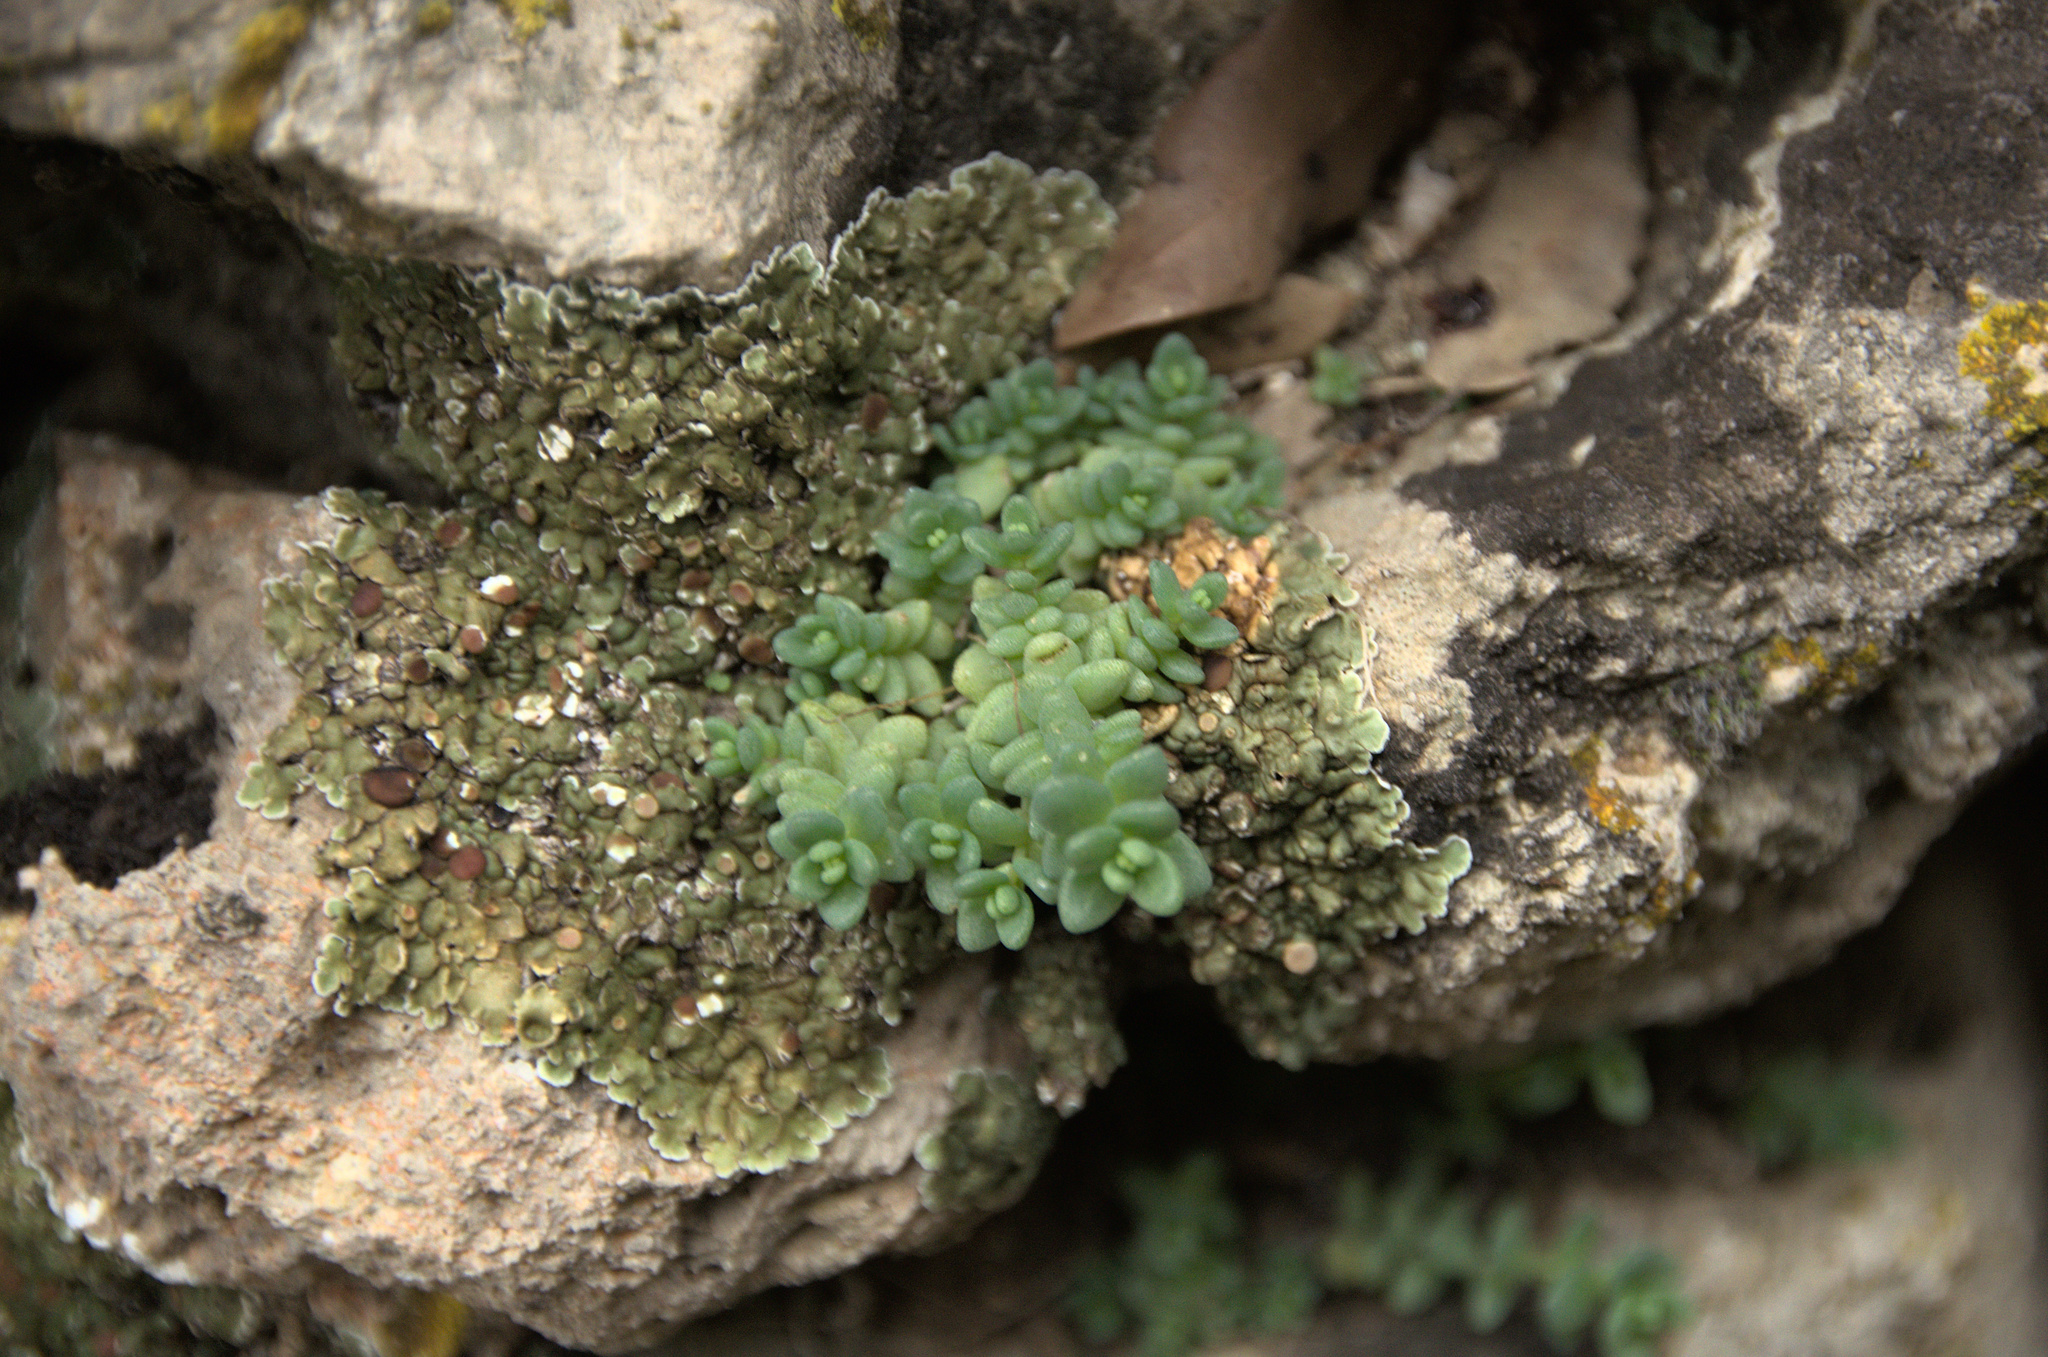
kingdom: Plantae
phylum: Tracheophyta
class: Magnoliopsida
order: Saxifragales
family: Crassulaceae
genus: Sedum
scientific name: Sedum dasyphyllum
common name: Thick-leaf stonecrop
